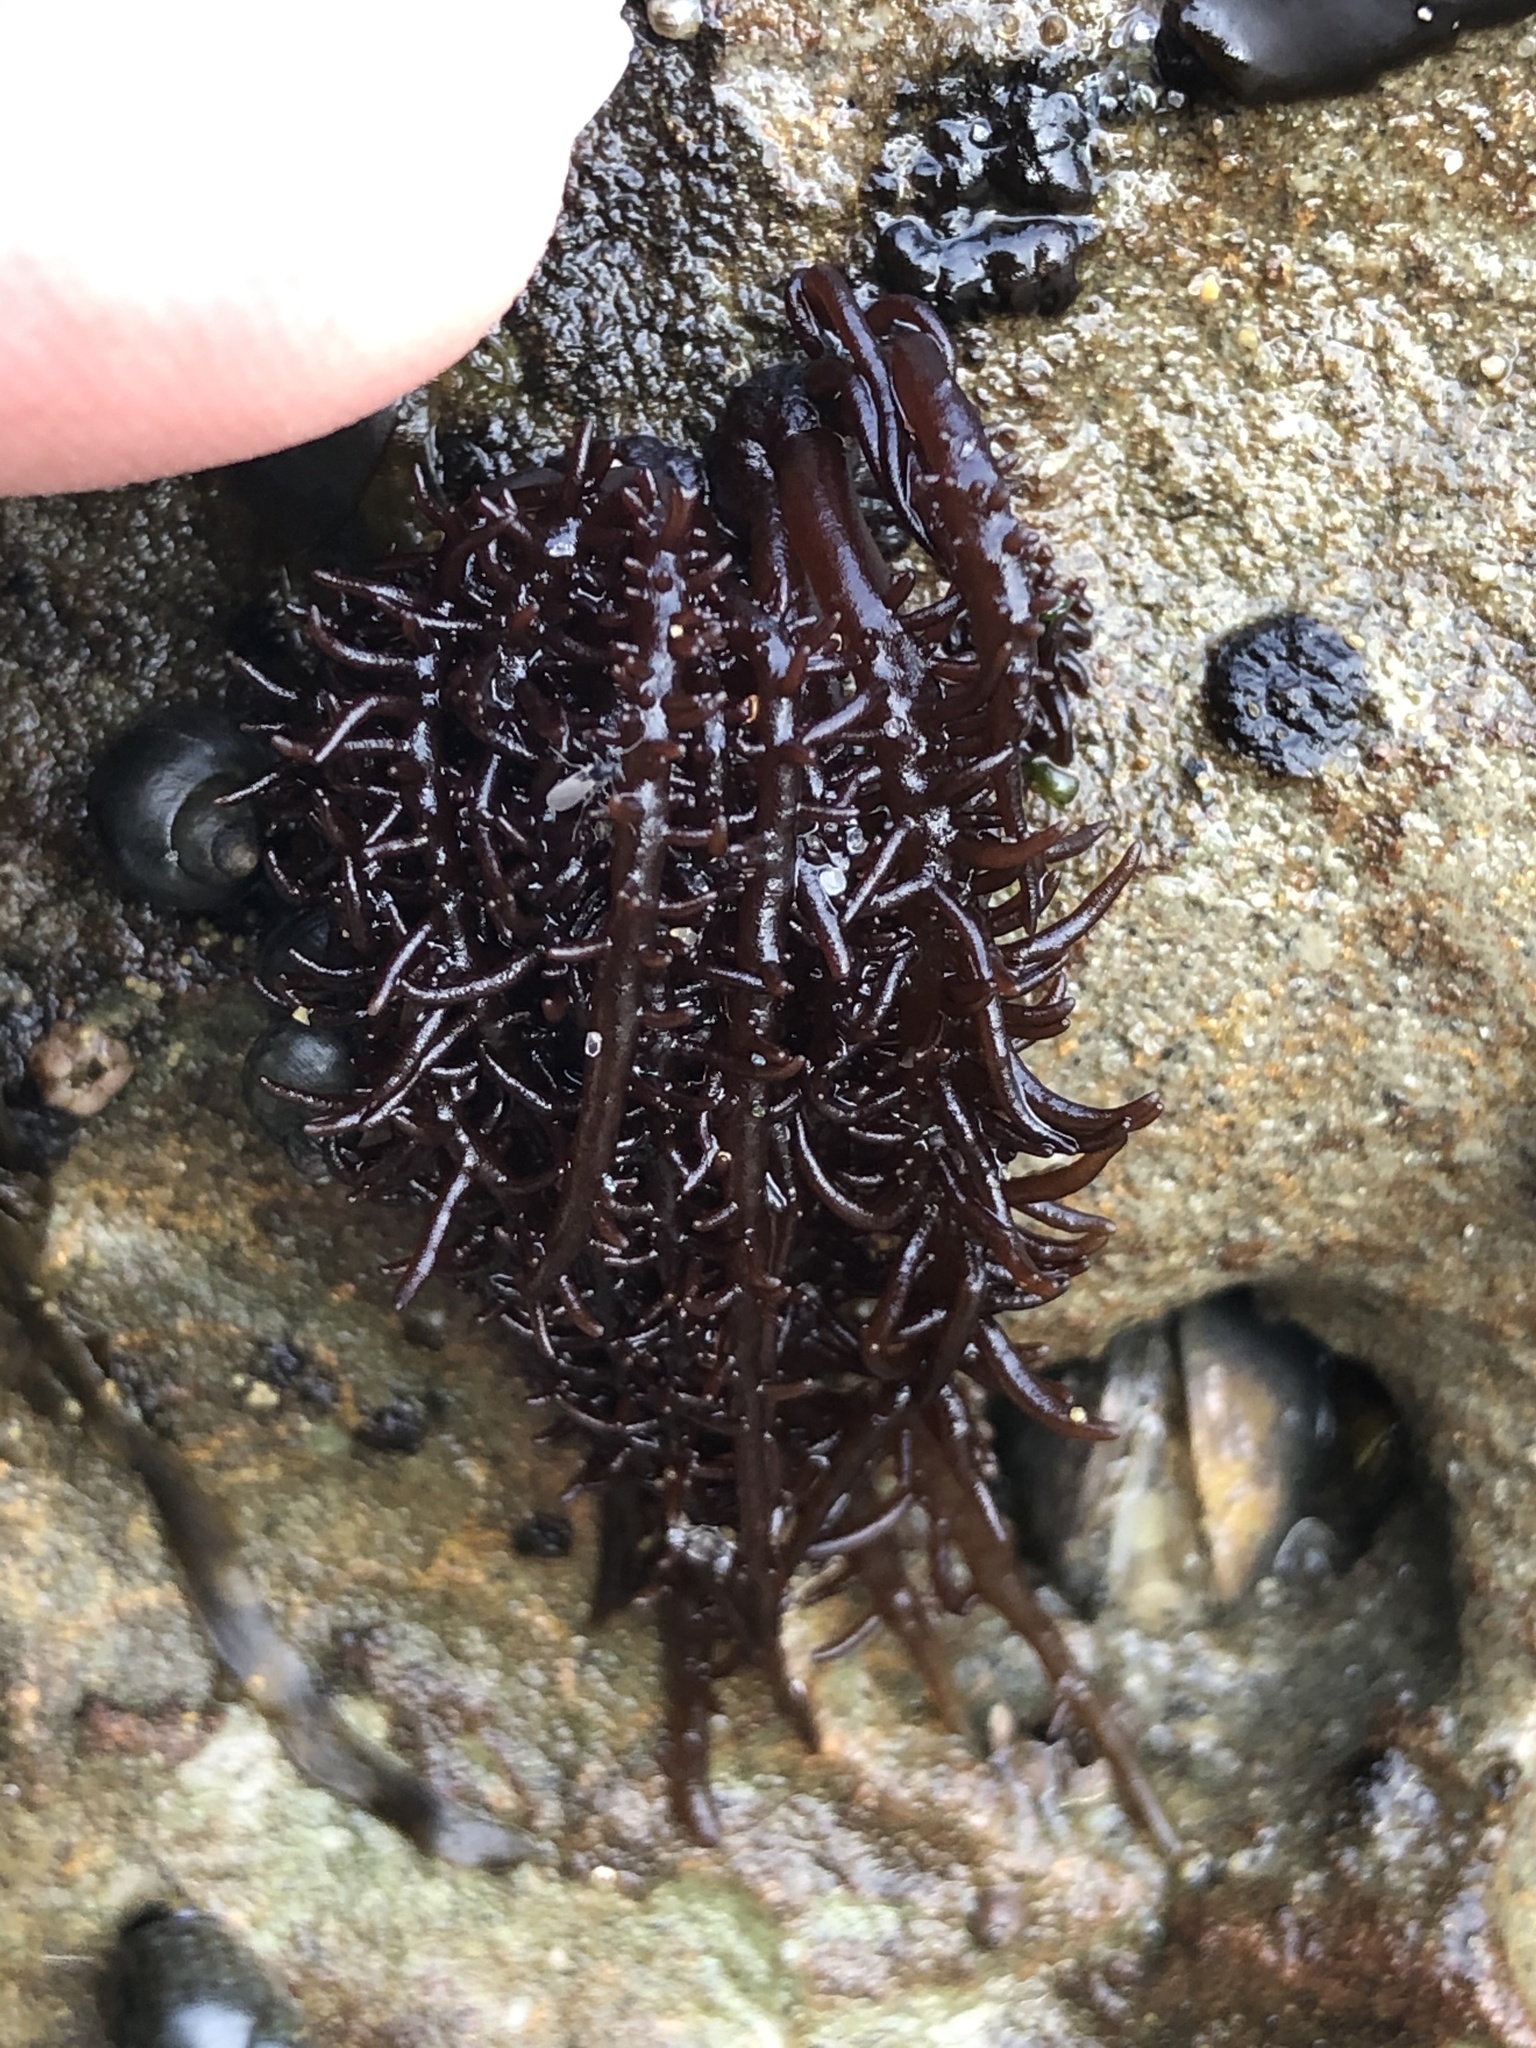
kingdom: Plantae
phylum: Rhodophyta
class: Florideophyceae
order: Nemaliales
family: Liagoraceae
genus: Cumagloia
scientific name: Cumagloia andersonii
